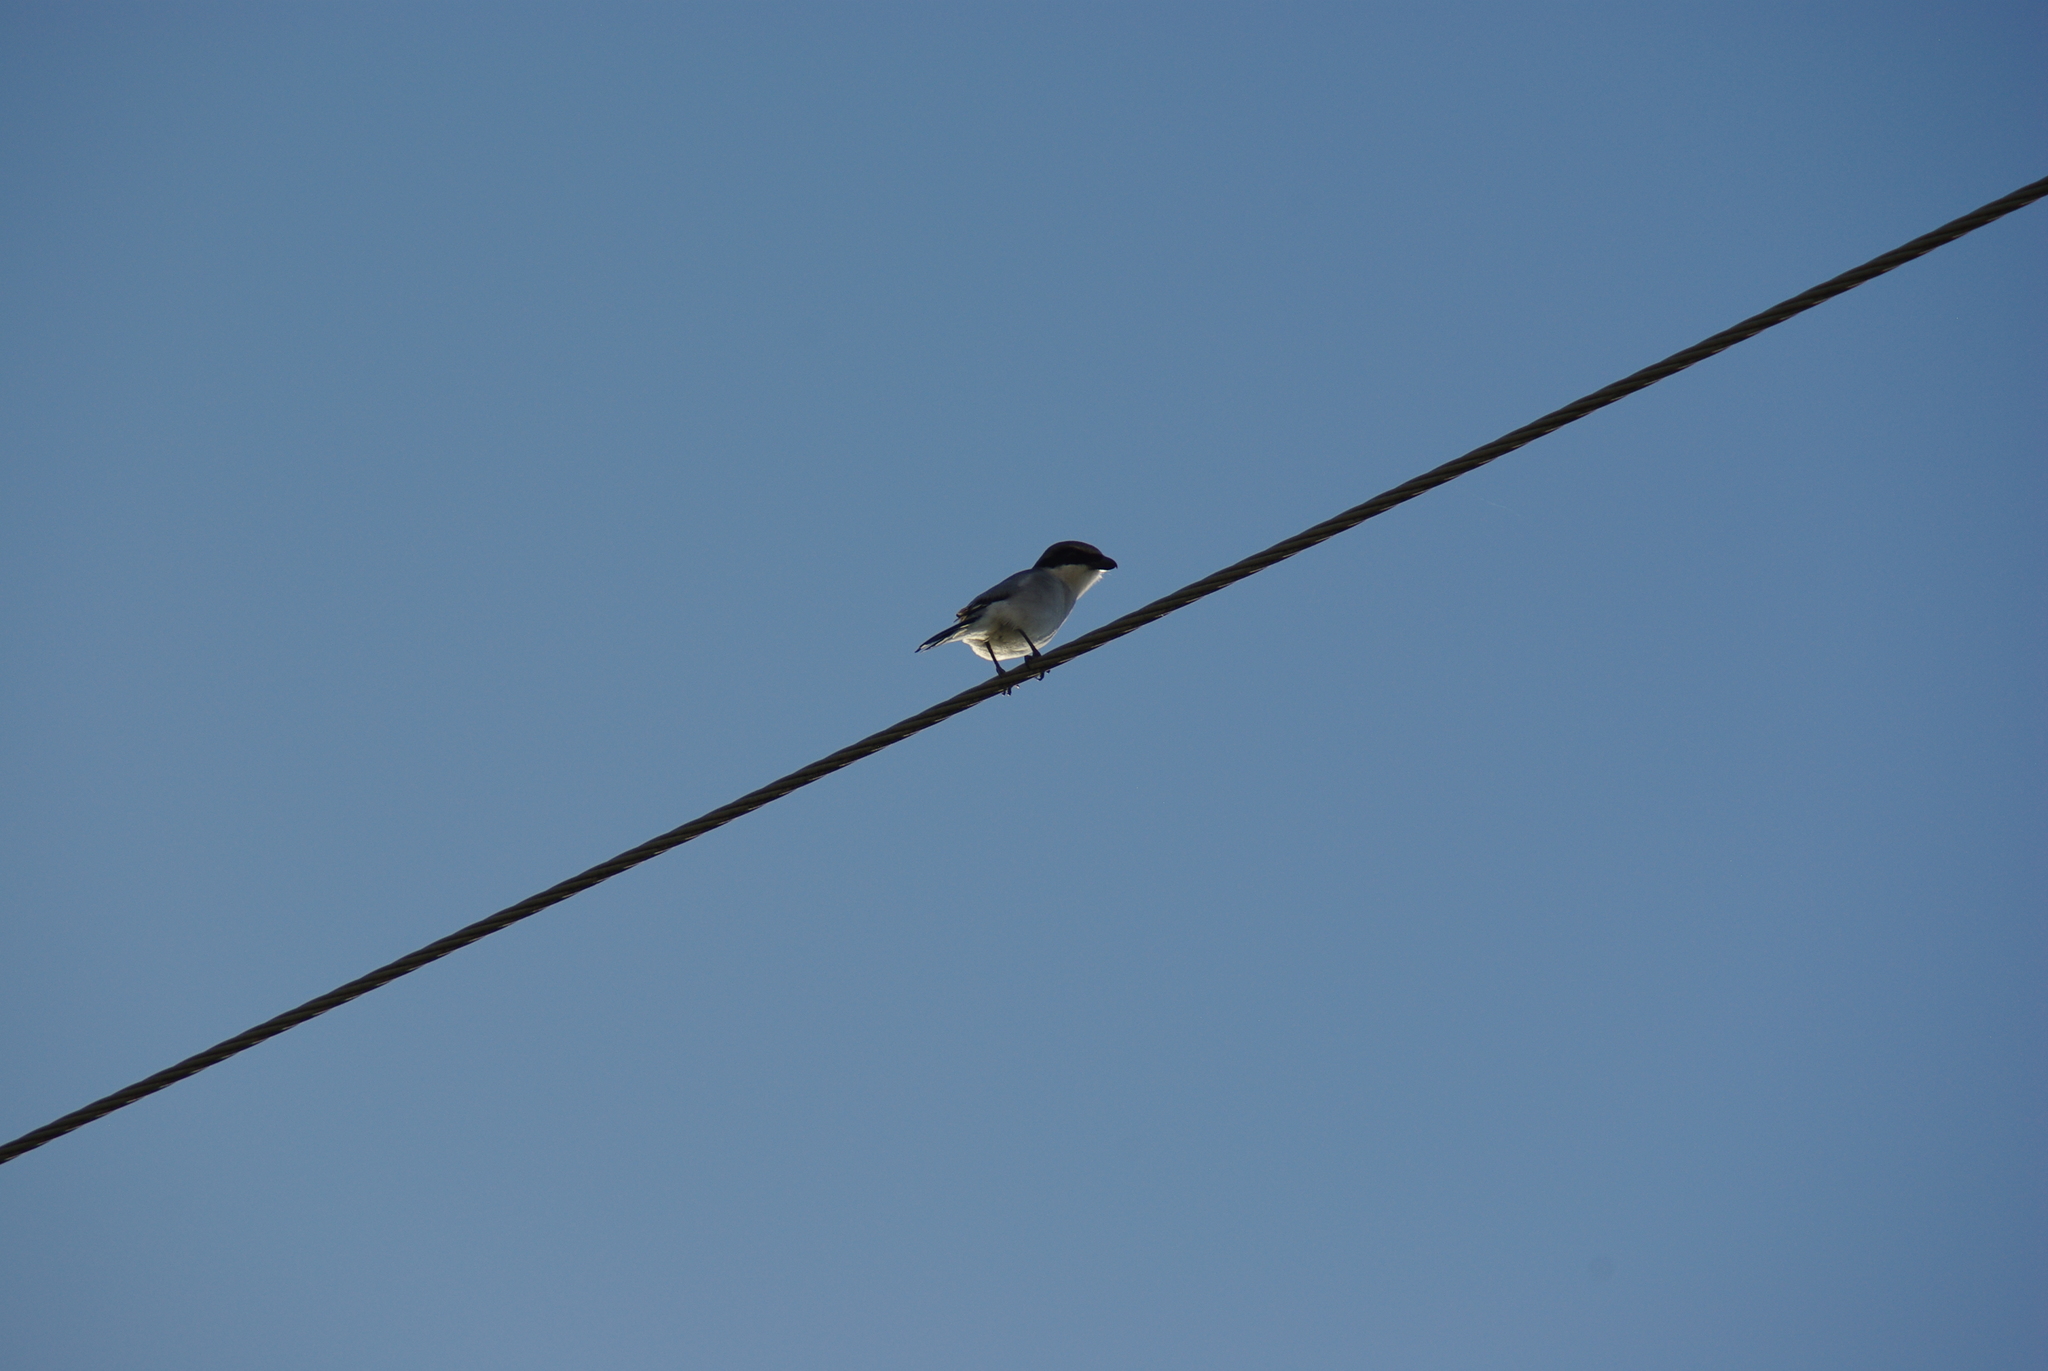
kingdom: Animalia
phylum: Chordata
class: Aves
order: Passeriformes
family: Laniidae
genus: Lanius
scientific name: Lanius ludovicianus
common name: Loggerhead shrike
